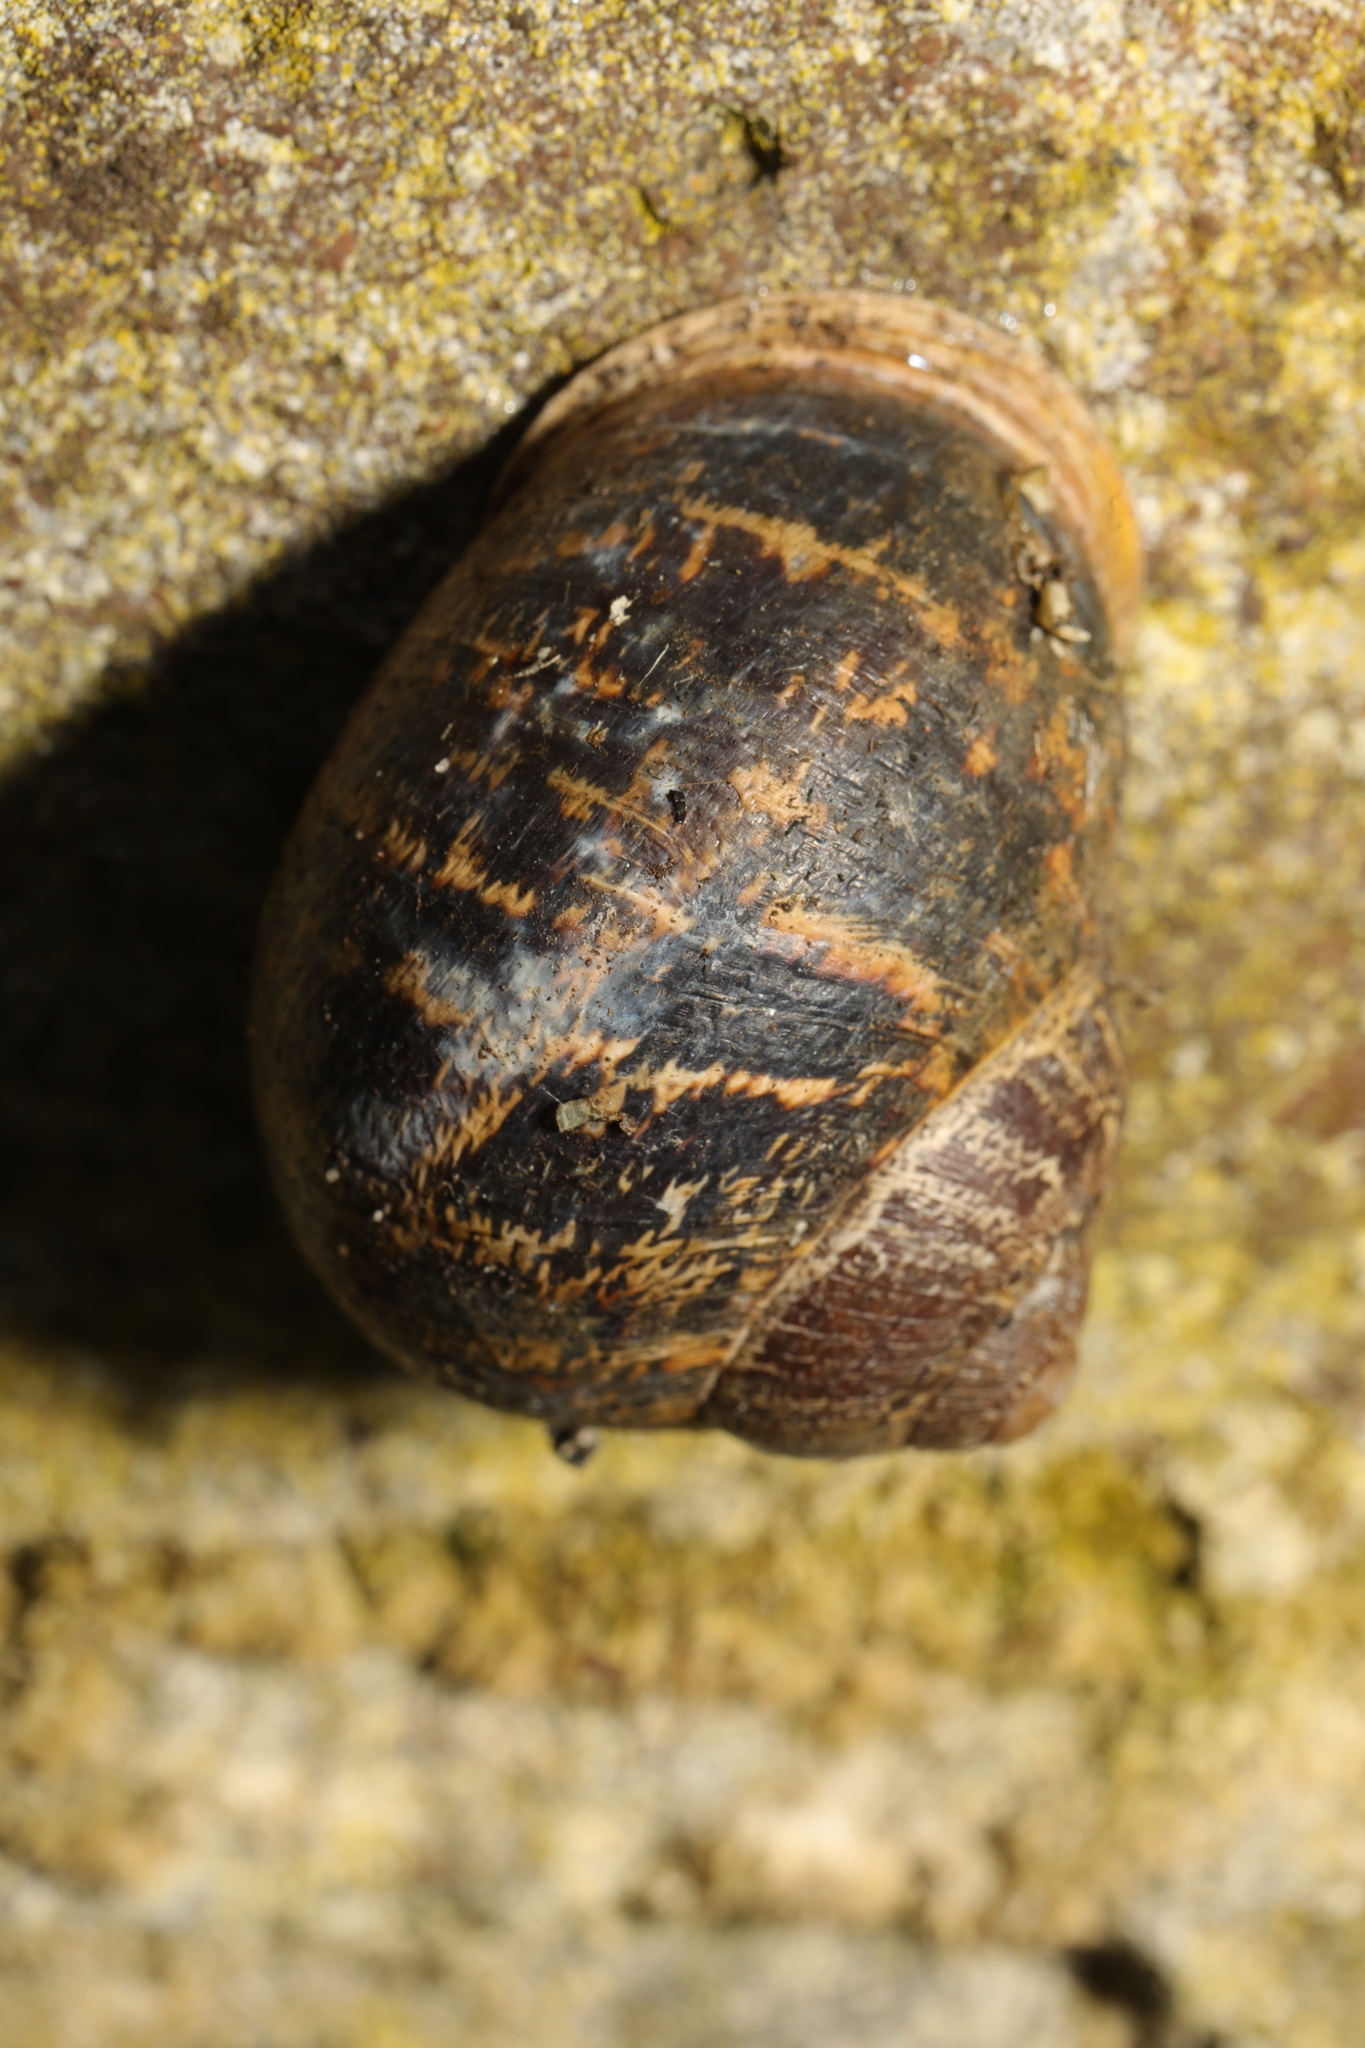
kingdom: Animalia
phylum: Mollusca
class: Gastropoda
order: Stylommatophora
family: Helicidae
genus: Cornu
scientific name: Cornu aspersum
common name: Brown garden snail
